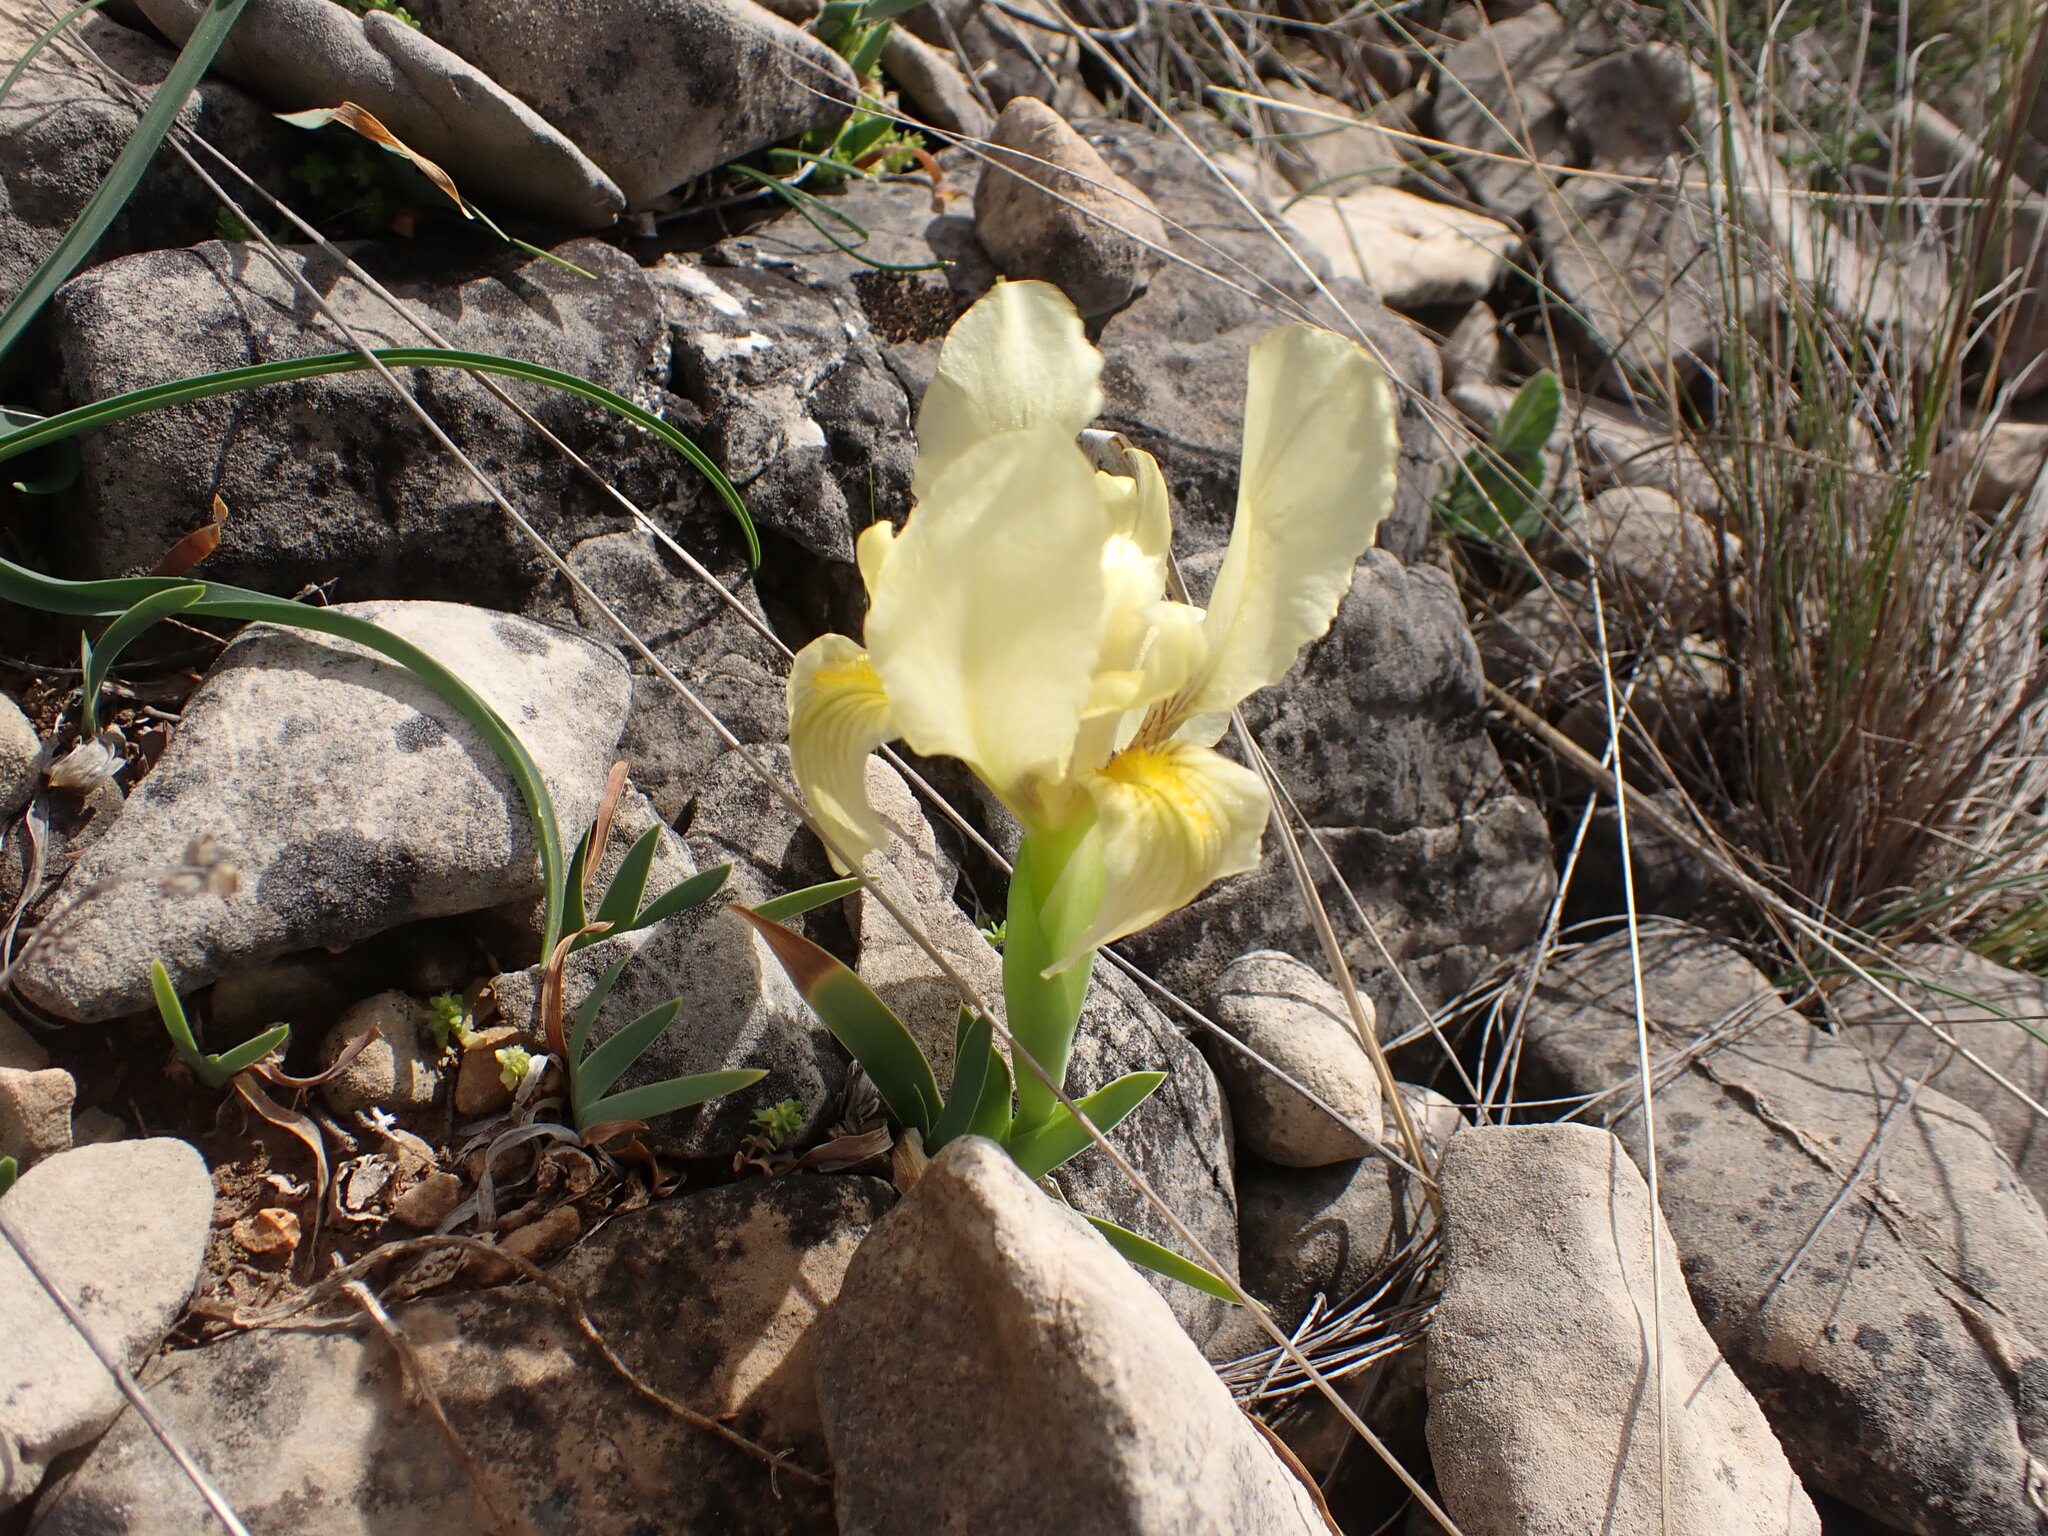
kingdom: Plantae
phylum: Tracheophyta
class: Liliopsida
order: Asparagales
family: Iridaceae
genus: Iris
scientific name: Iris lutescens
